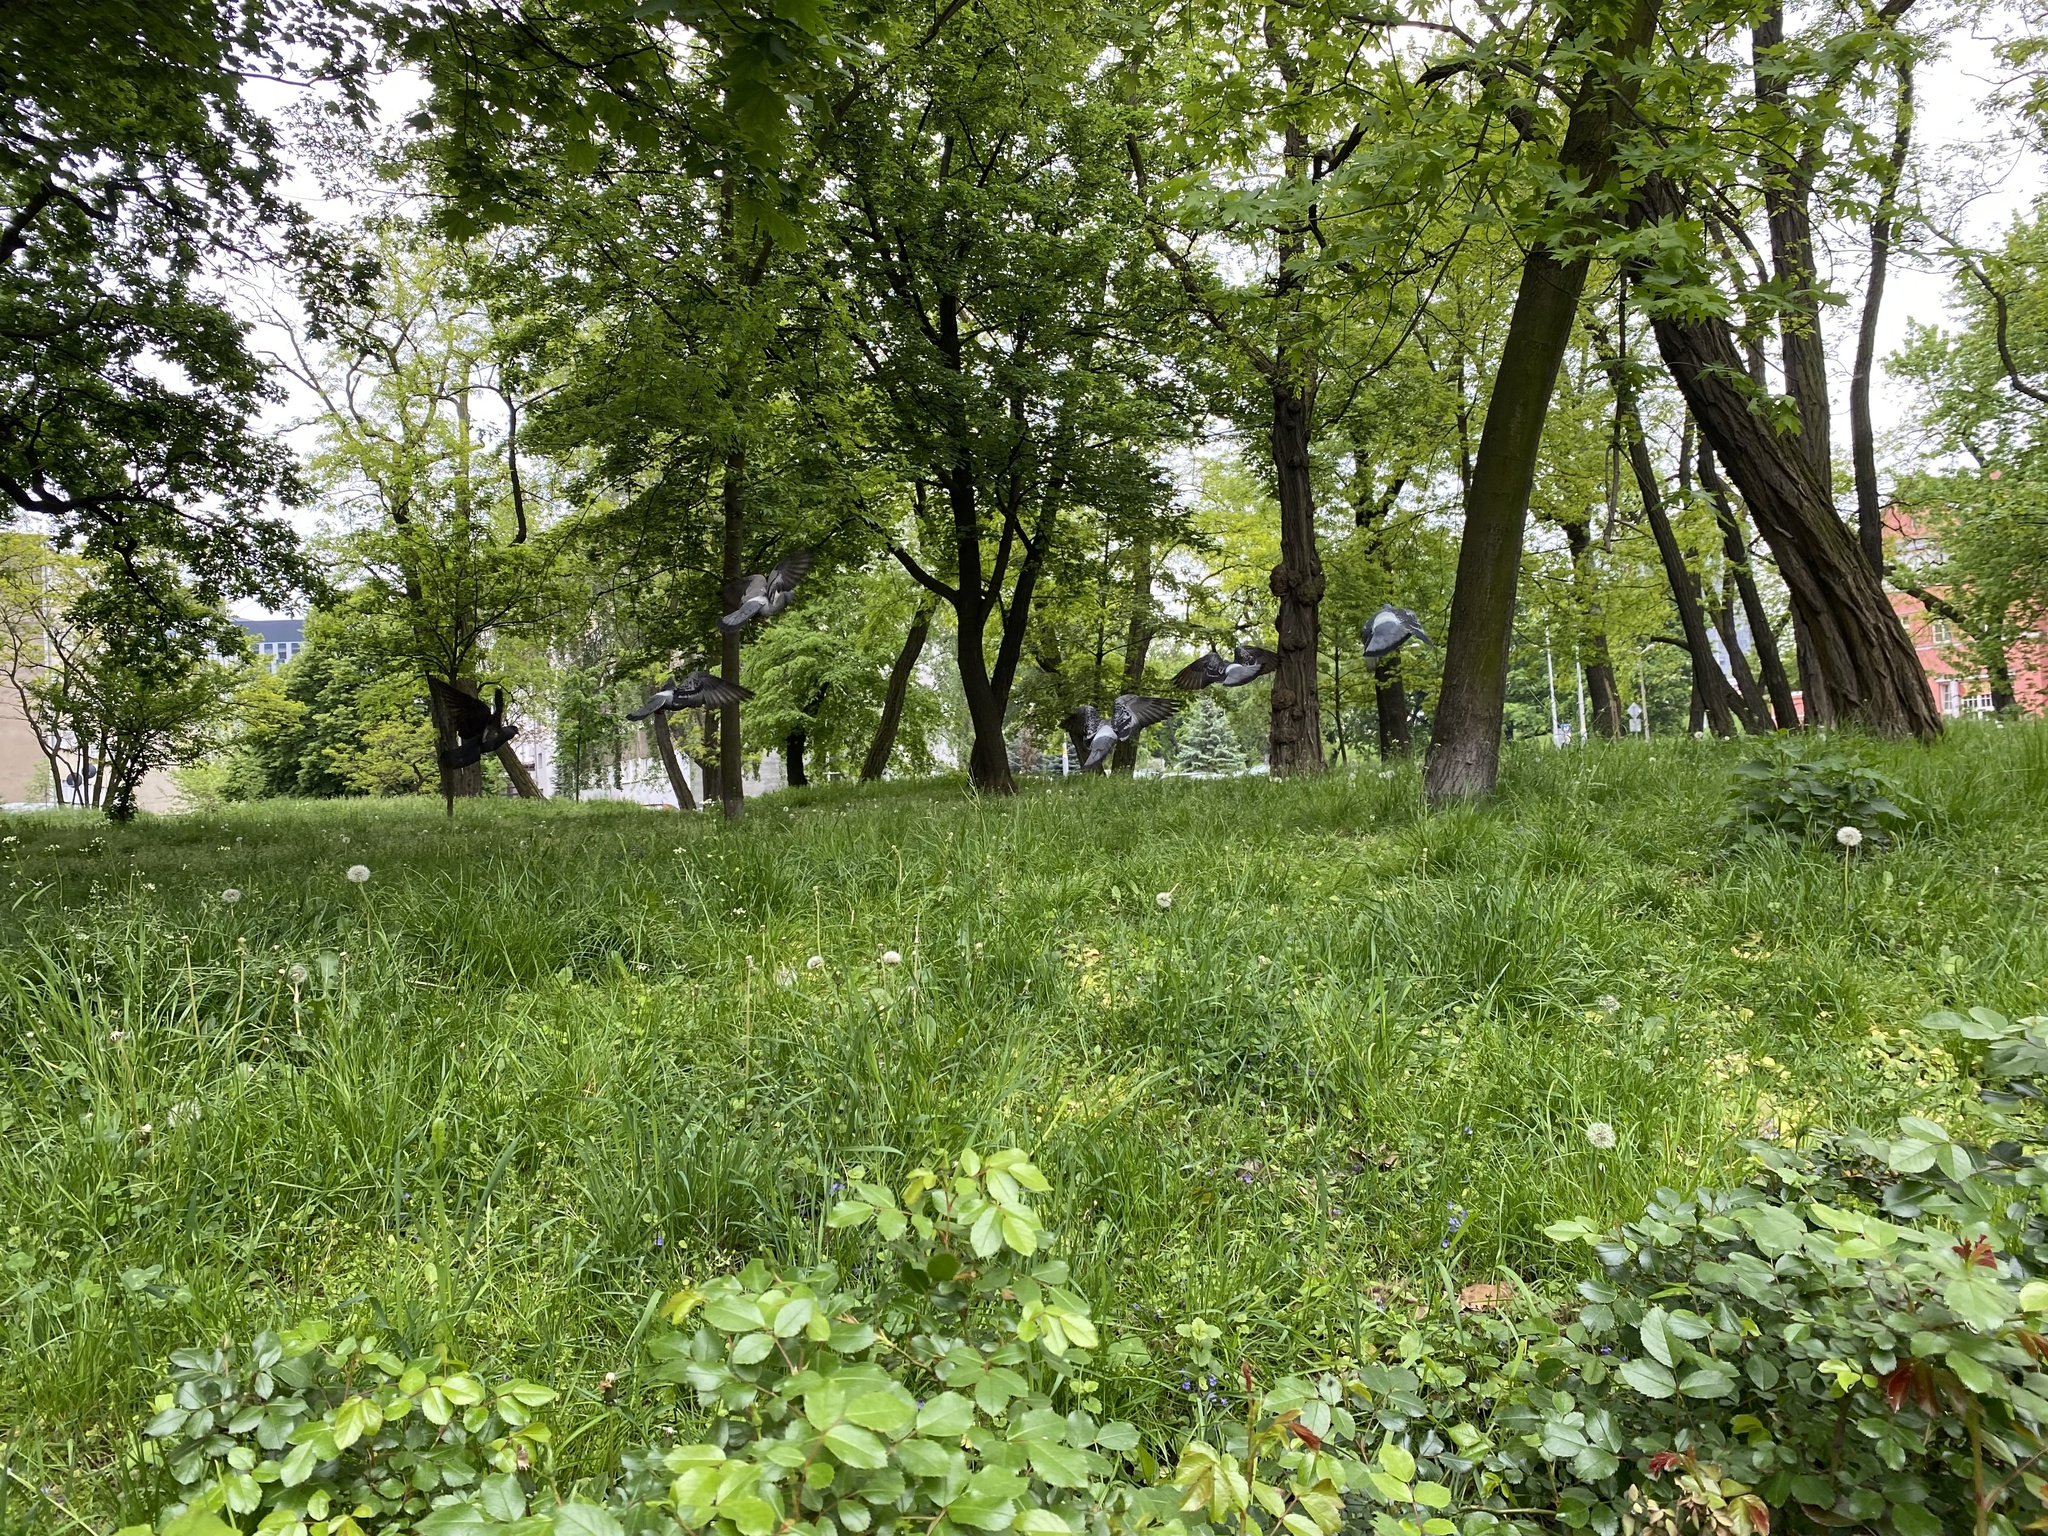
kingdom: Animalia
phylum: Chordata
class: Aves
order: Columbiformes
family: Columbidae
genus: Columba
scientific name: Columba livia
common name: Rock pigeon
